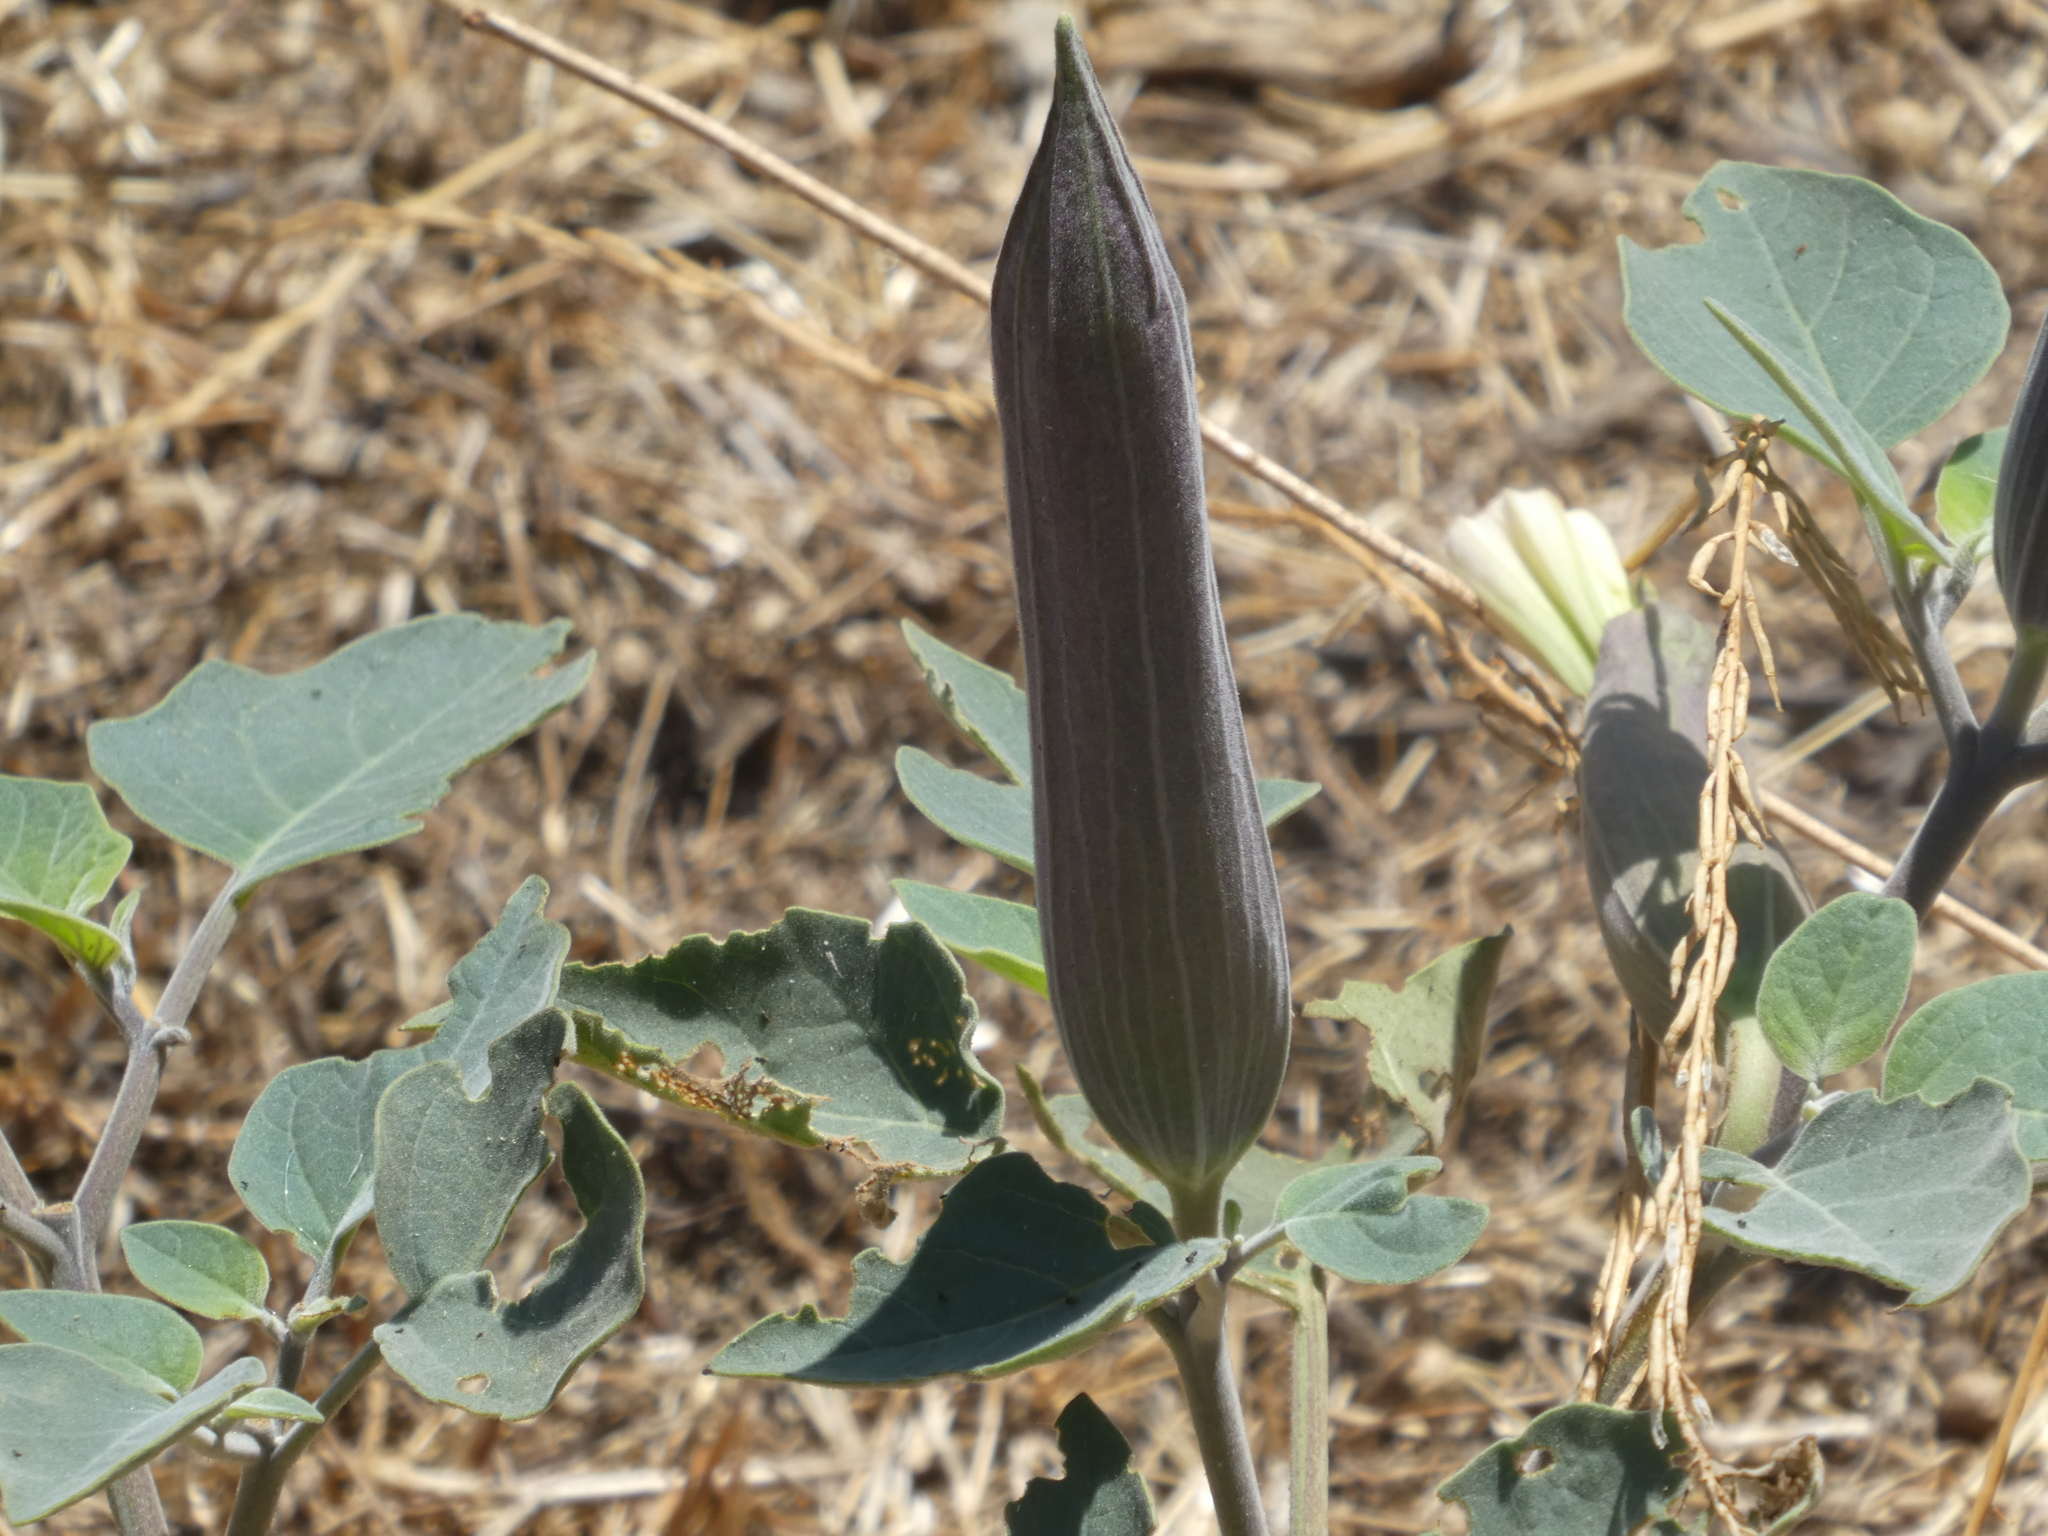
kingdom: Plantae
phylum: Tracheophyta
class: Magnoliopsida
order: Solanales
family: Solanaceae
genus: Datura
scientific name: Datura wrightii
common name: Sacred thorn-apple
